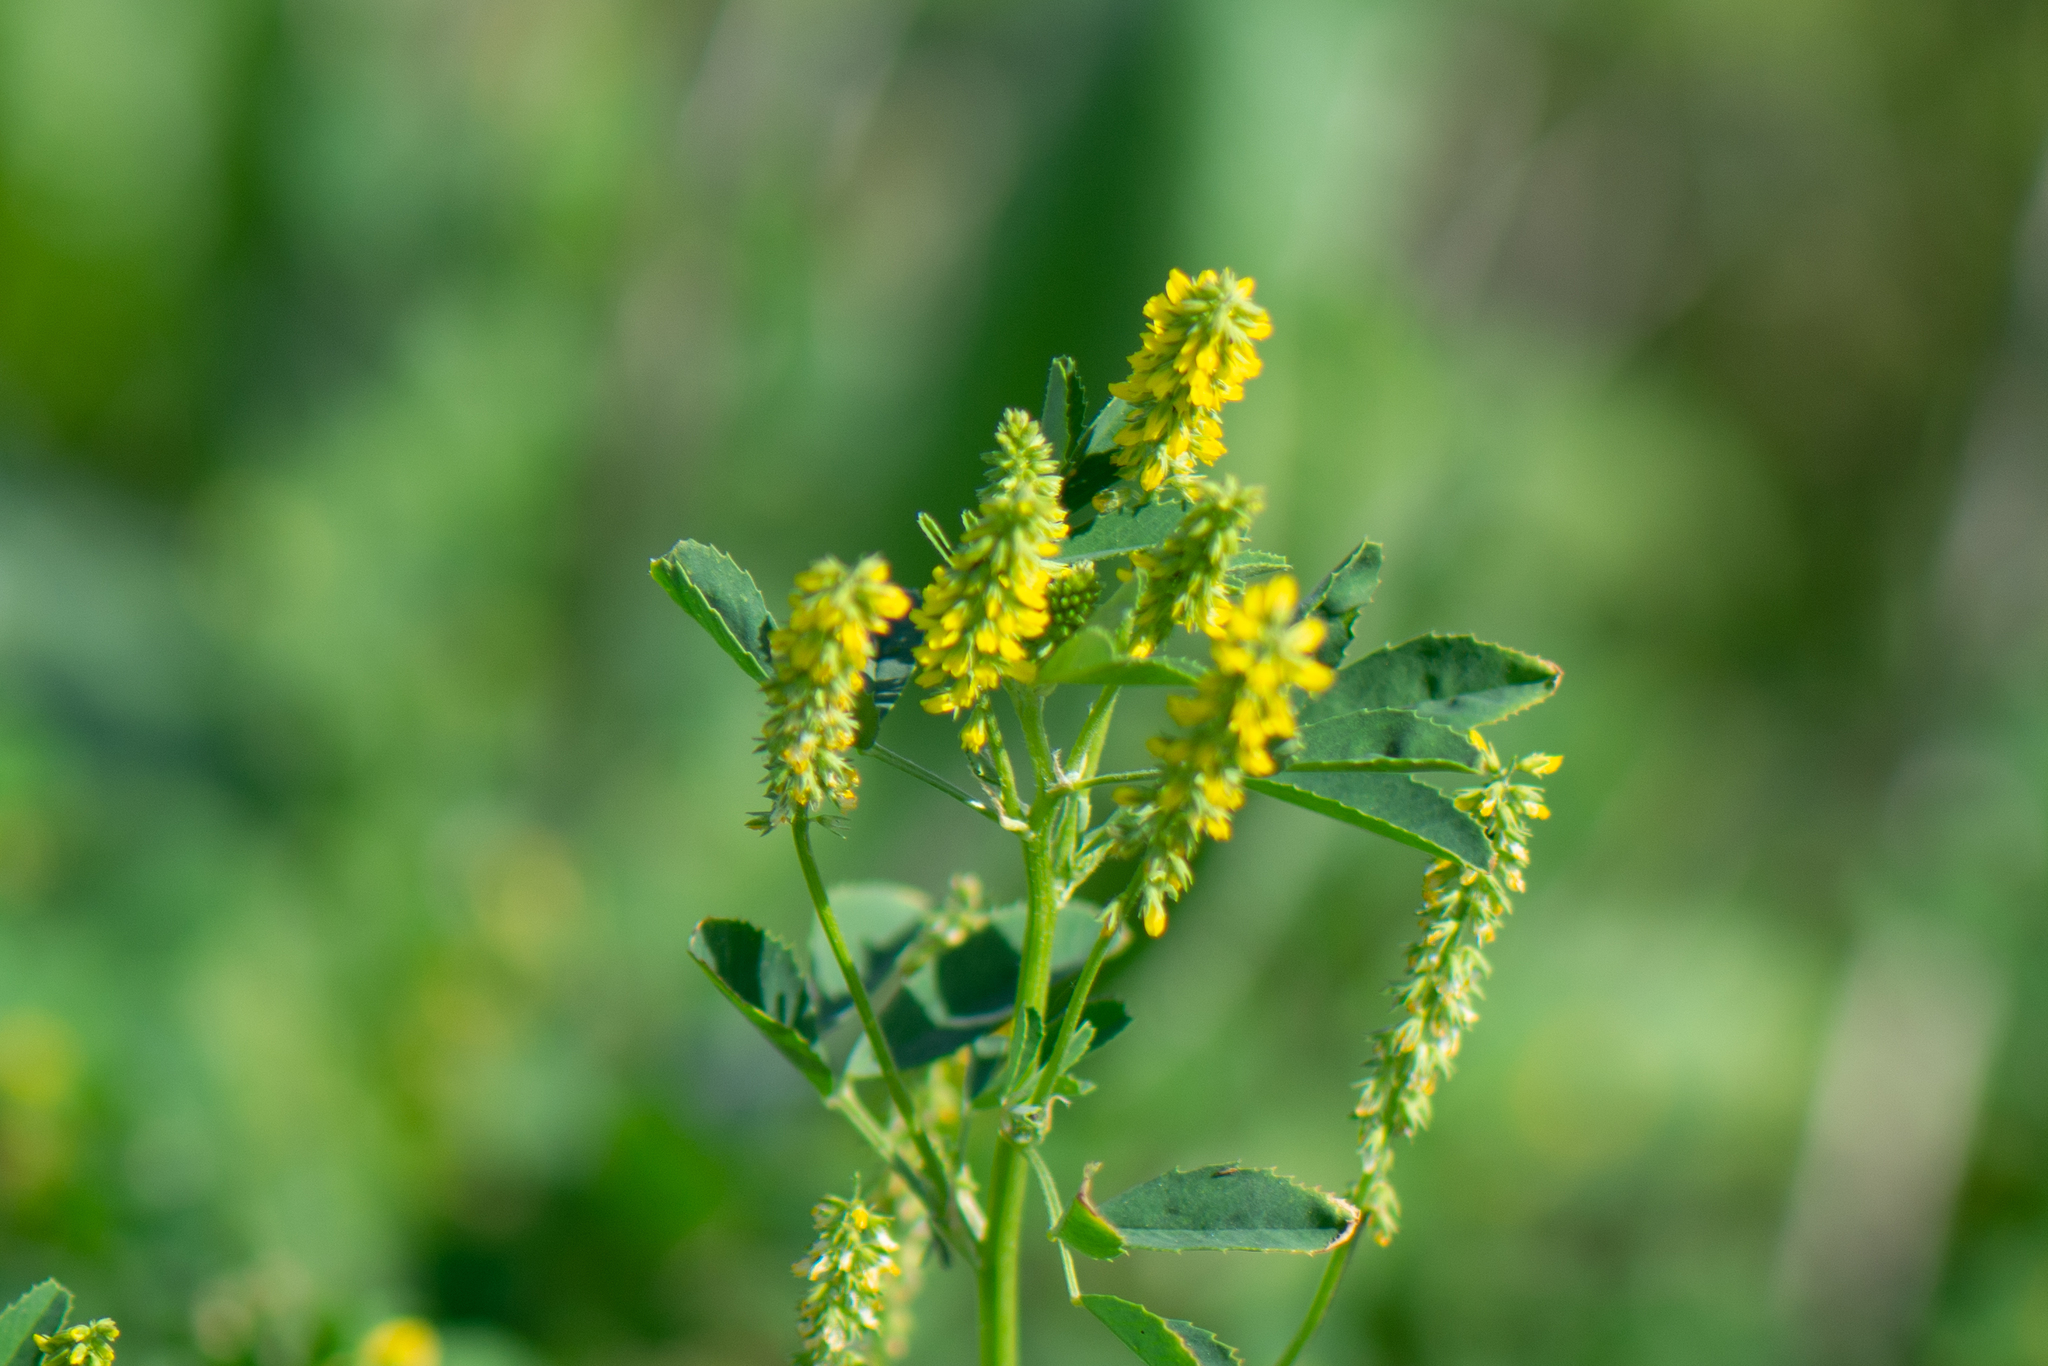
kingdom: Plantae
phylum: Tracheophyta
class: Magnoliopsida
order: Fabales
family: Fabaceae
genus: Melilotus
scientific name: Melilotus indicus
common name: Small melilot
